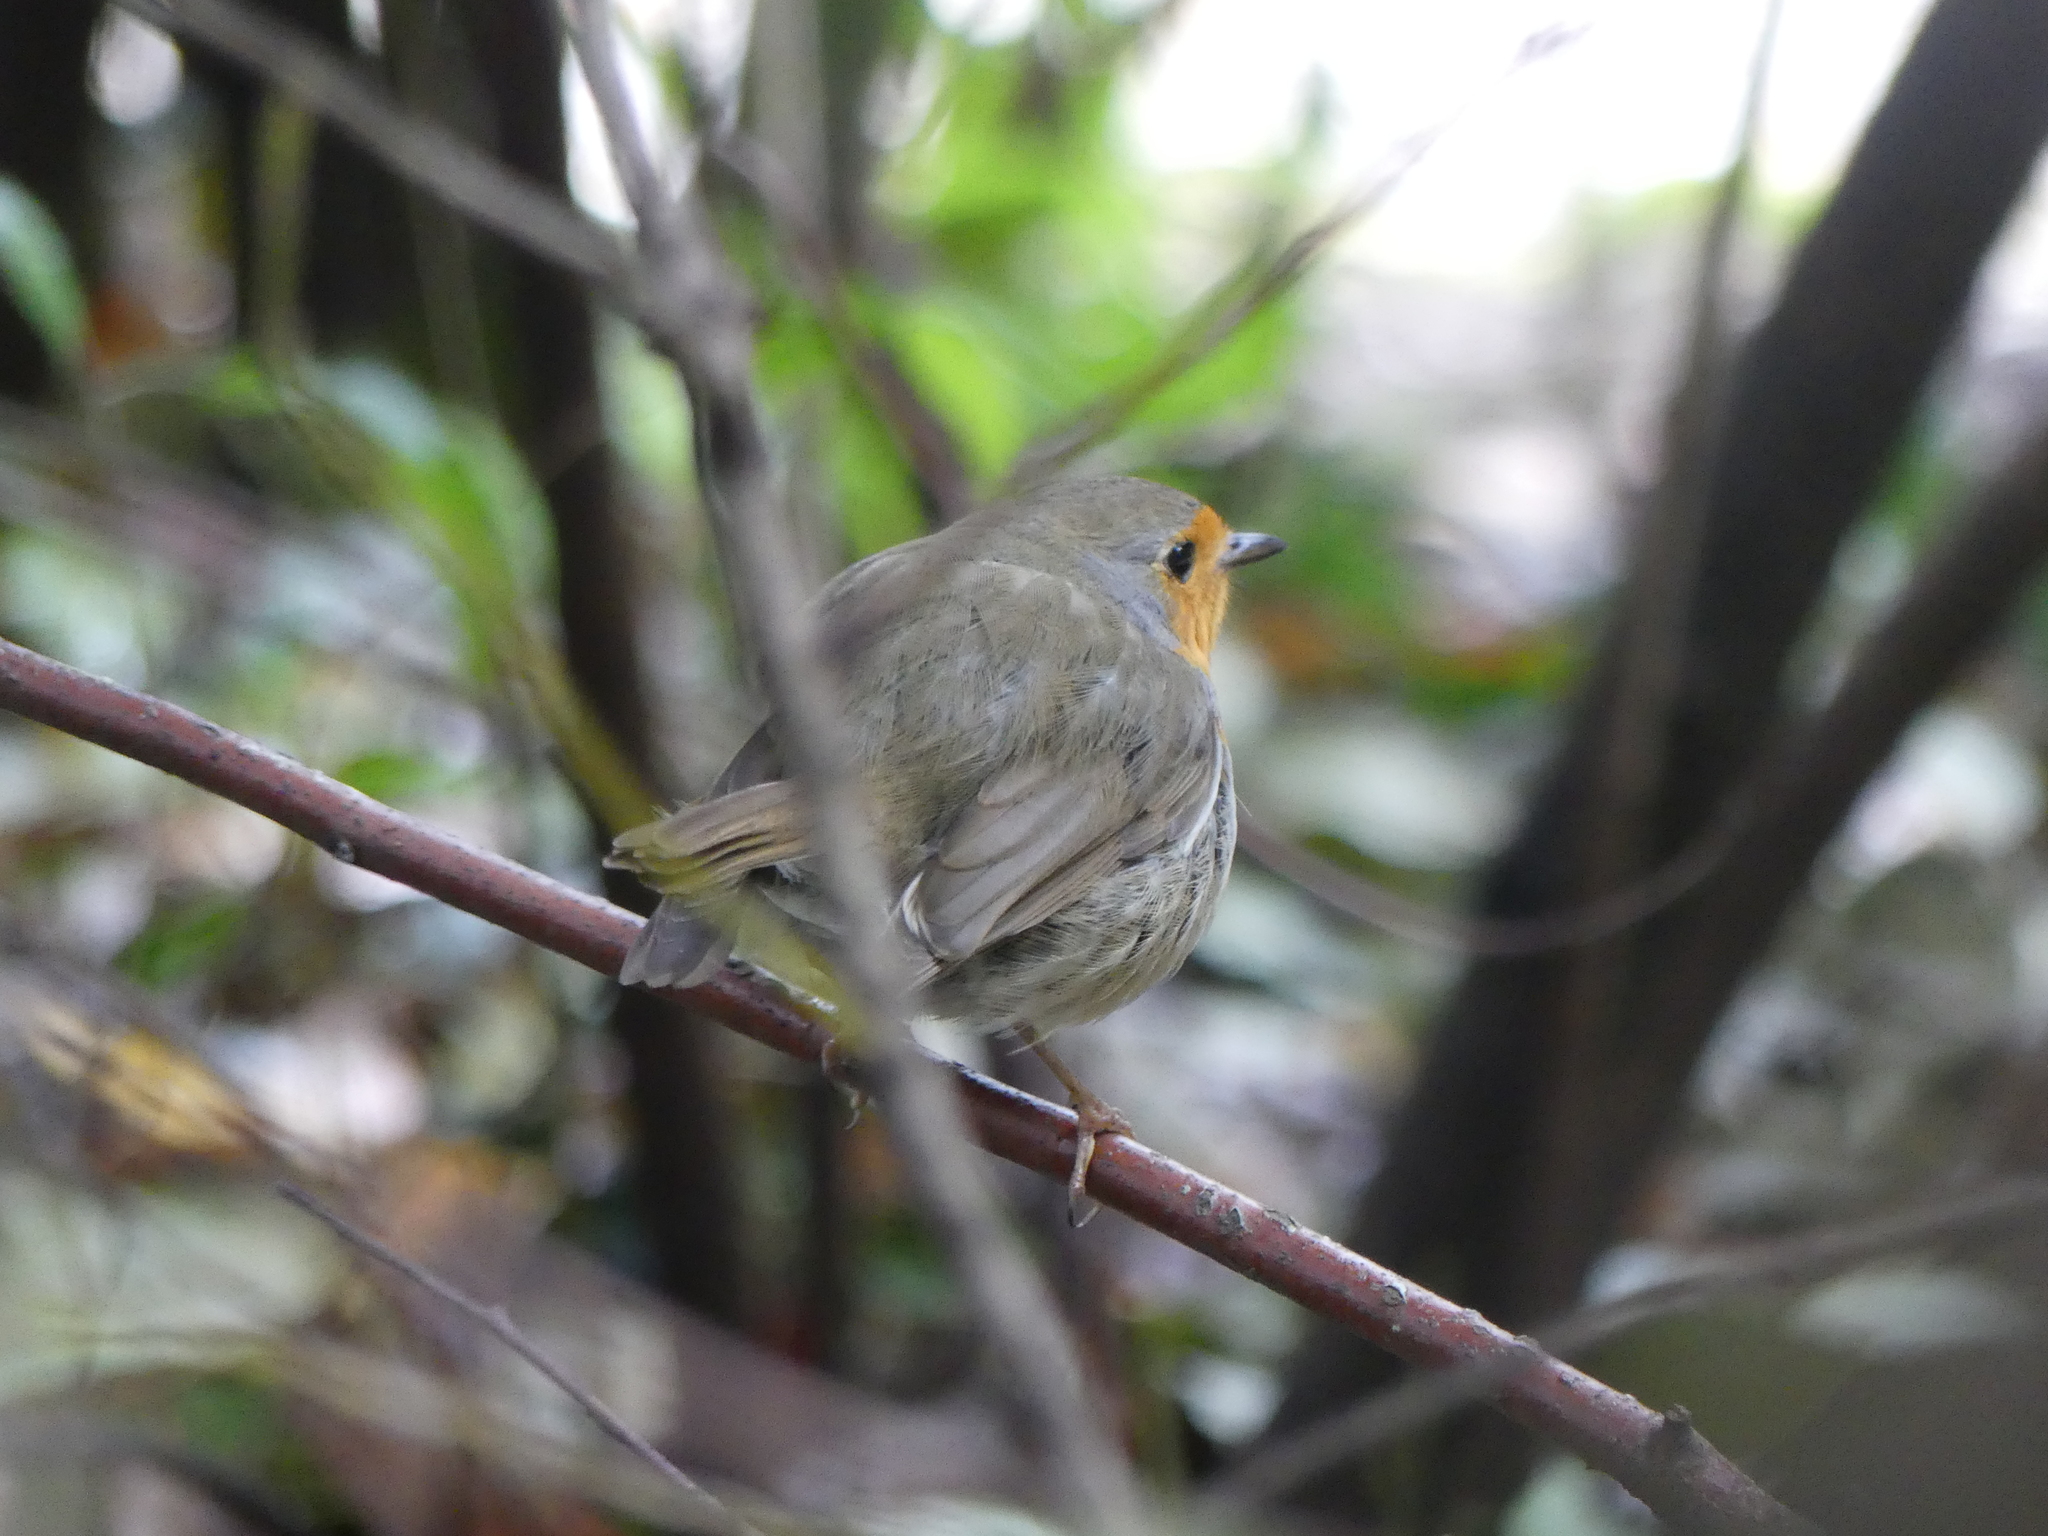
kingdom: Animalia
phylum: Chordata
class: Aves
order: Passeriformes
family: Muscicapidae
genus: Erithacus
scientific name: Erithacus rubecula
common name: European robin
